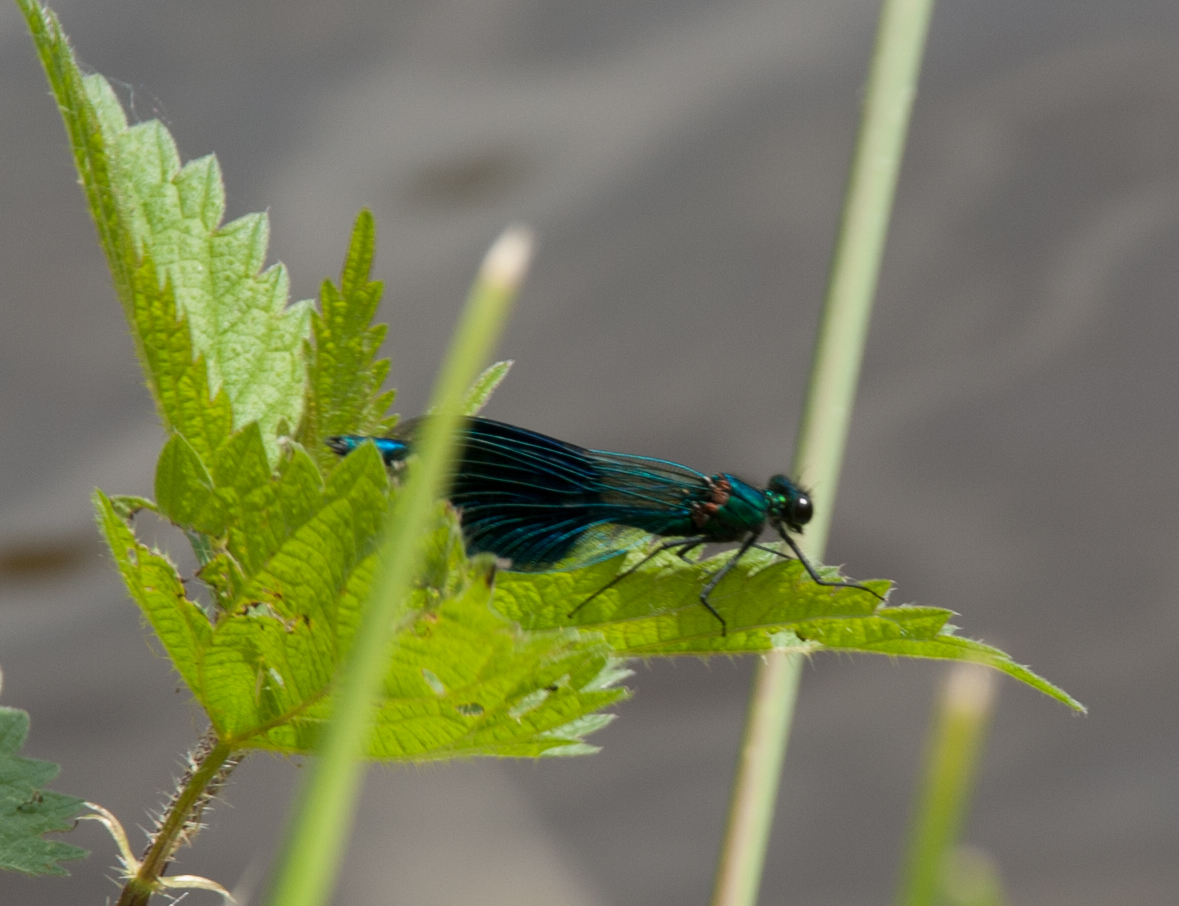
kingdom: Animalia
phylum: Arthropoda
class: Insecta
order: Odonata
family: Calopterygidae
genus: Calopteryx
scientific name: Calopteryx splendens
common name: Banded demoiselle
